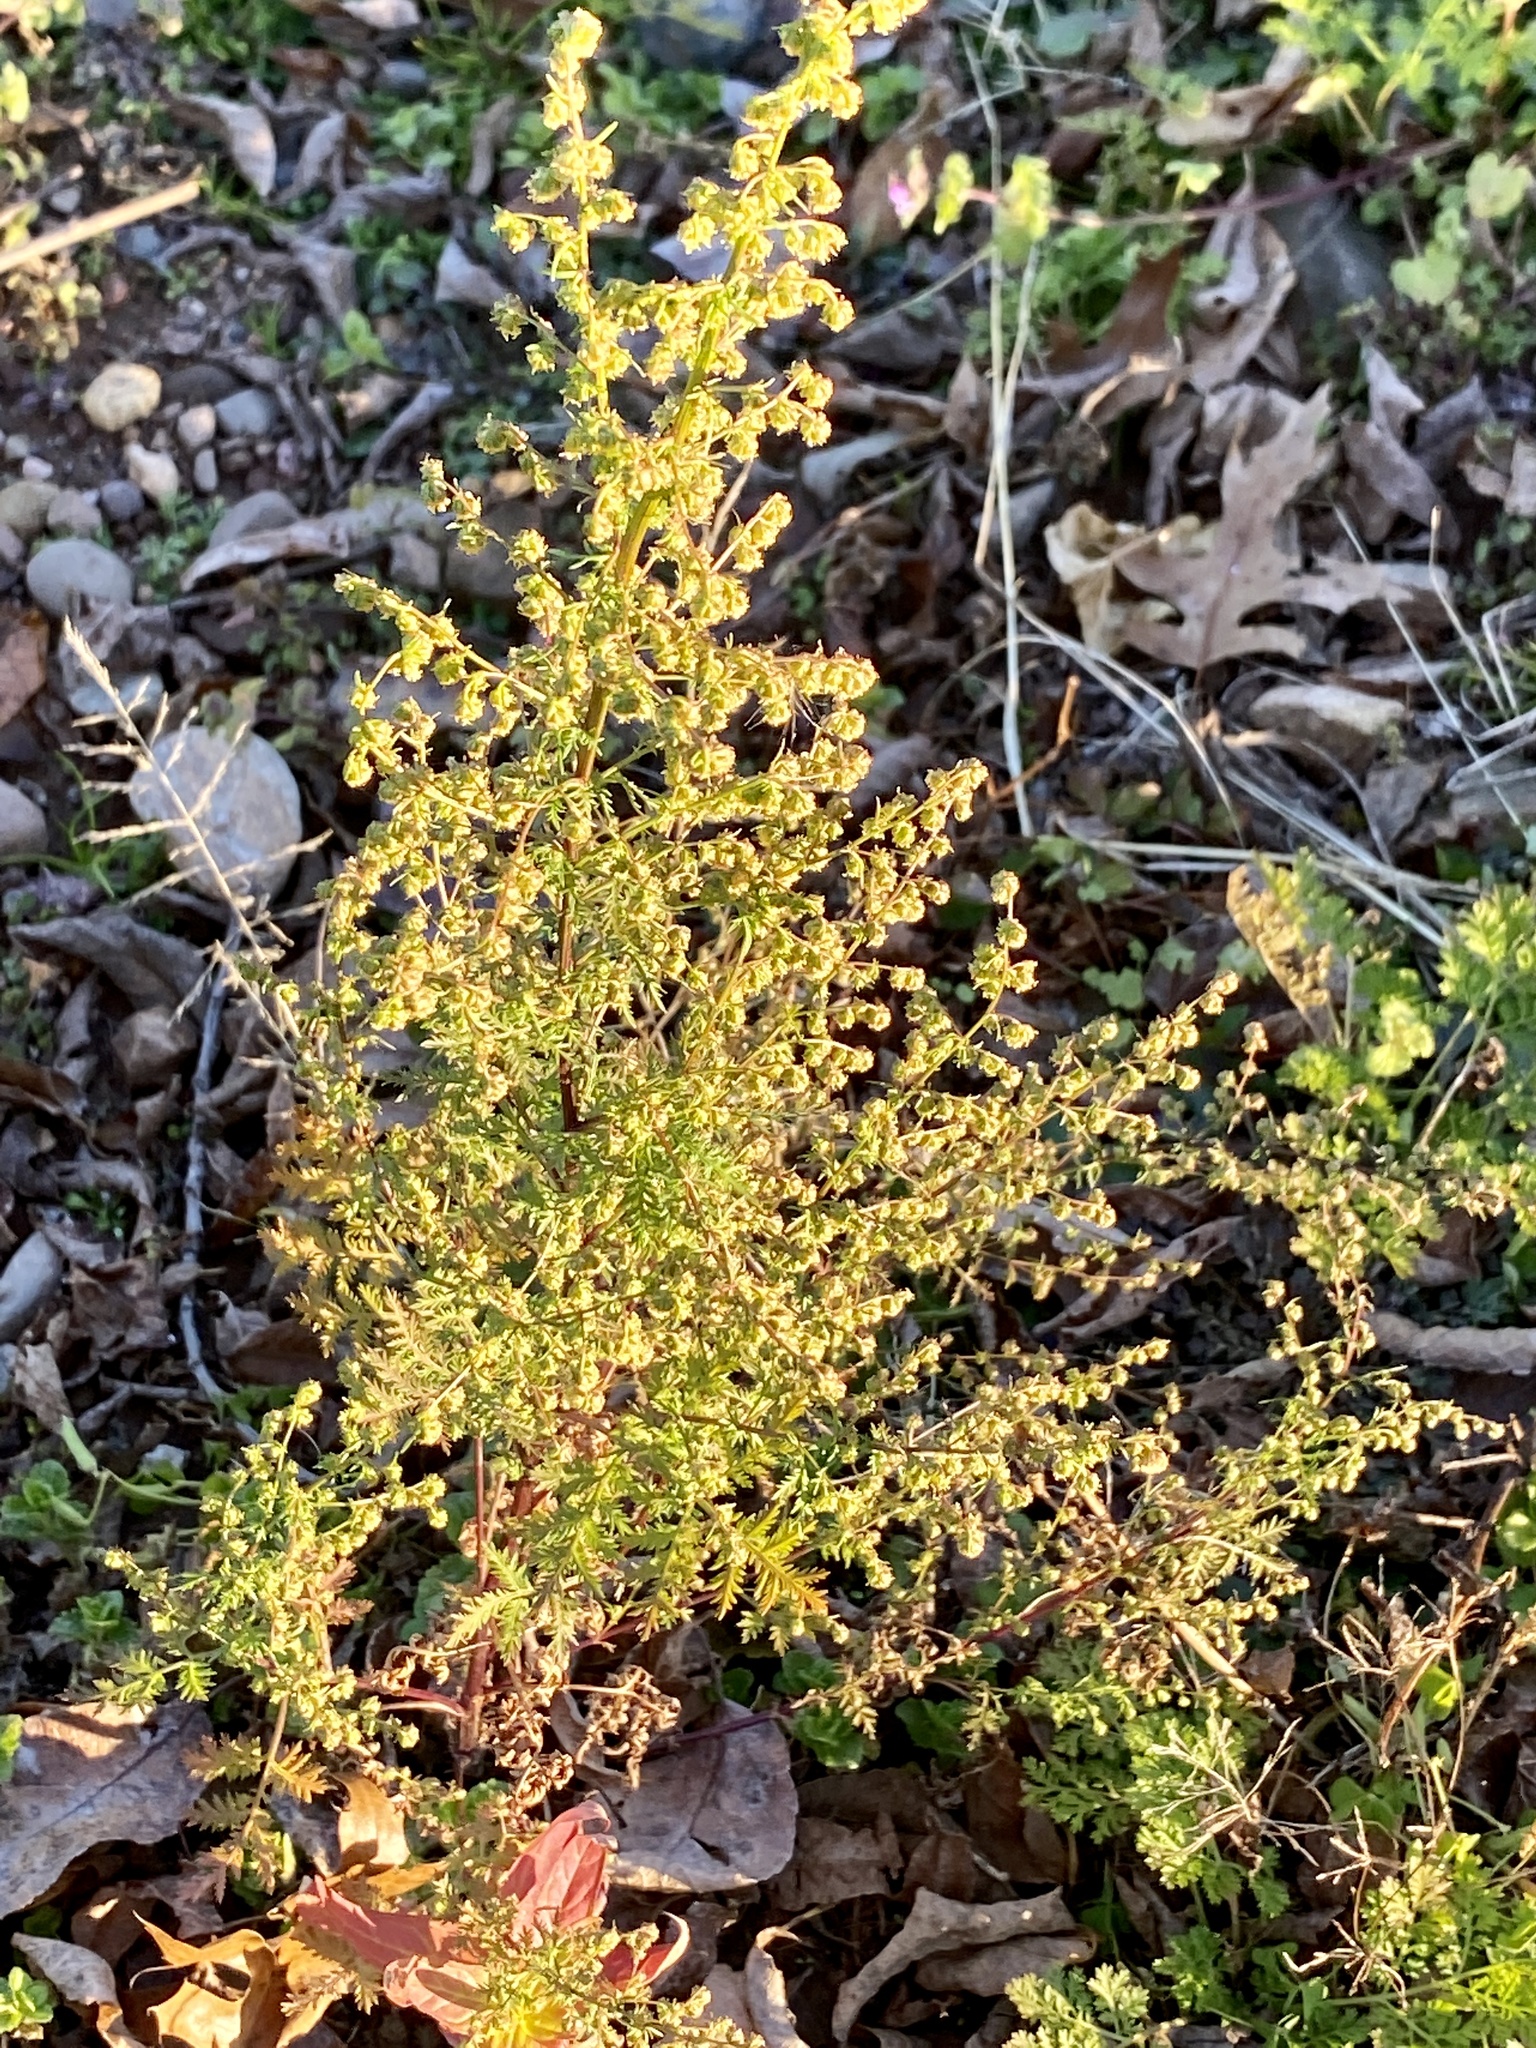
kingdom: Plantae
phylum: Tracheophyta
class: Magnoliopsida
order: Asterales
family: Asteraceae
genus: Artemisia
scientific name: Artemisia annua
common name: Sweet sagewort
